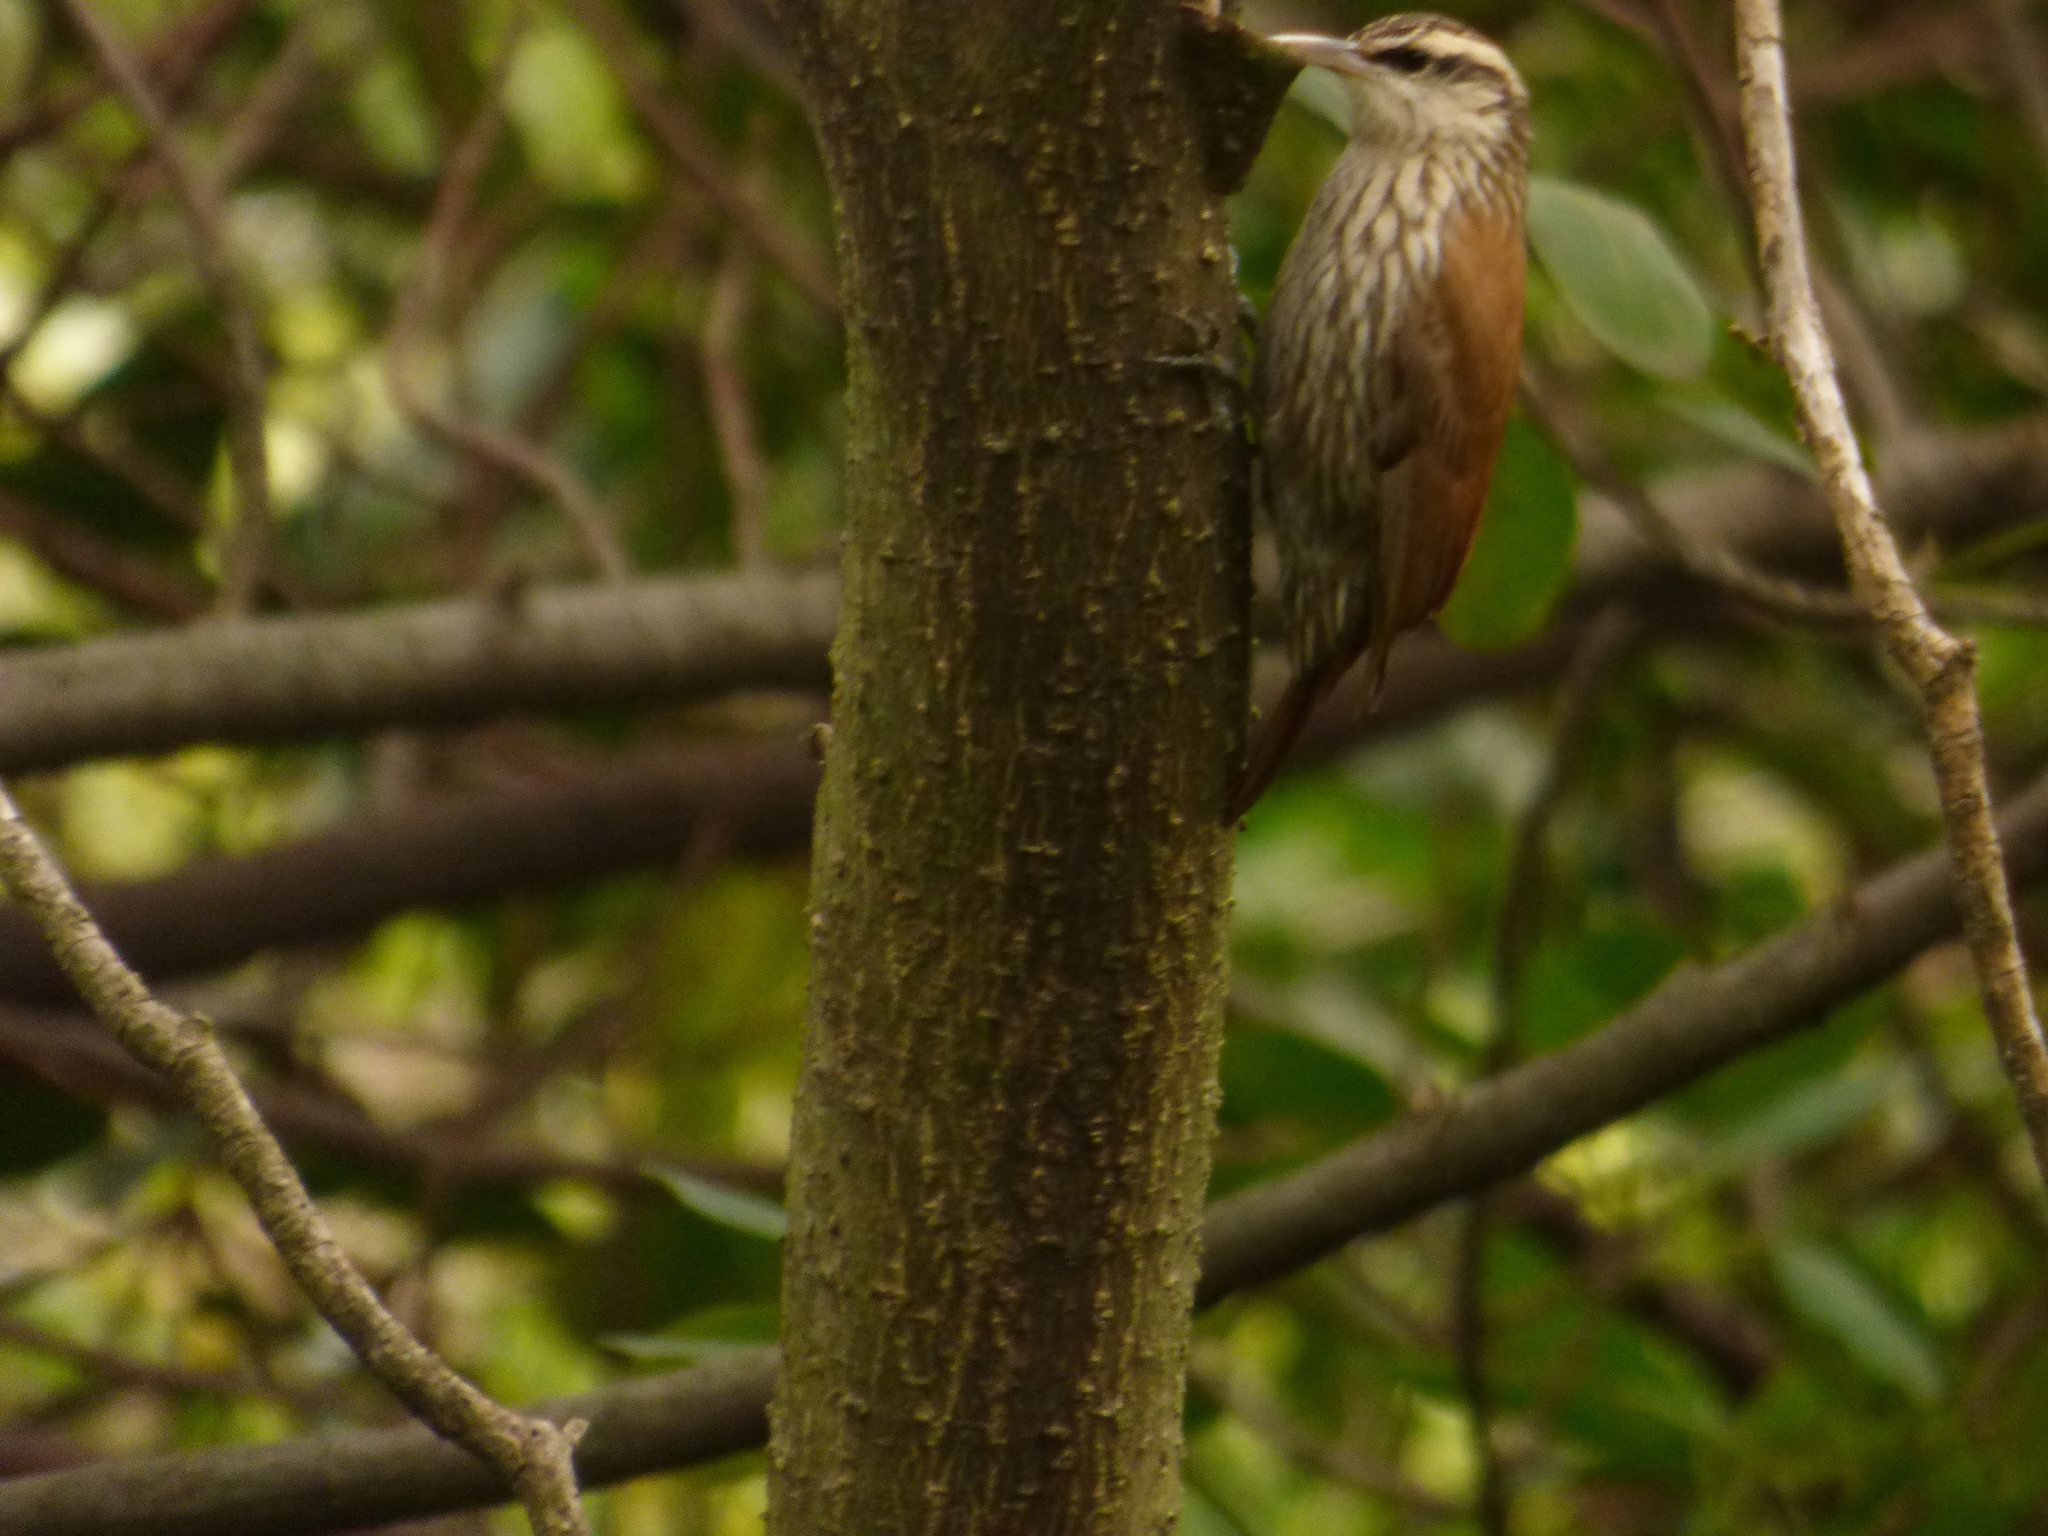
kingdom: Animalia
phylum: Chordata
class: Aves
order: Passeriformes
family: Furnariidae
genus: Lepidocolaptes
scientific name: Lepidocolaptes angustirostris
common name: Narrow-billed woodcreeper
